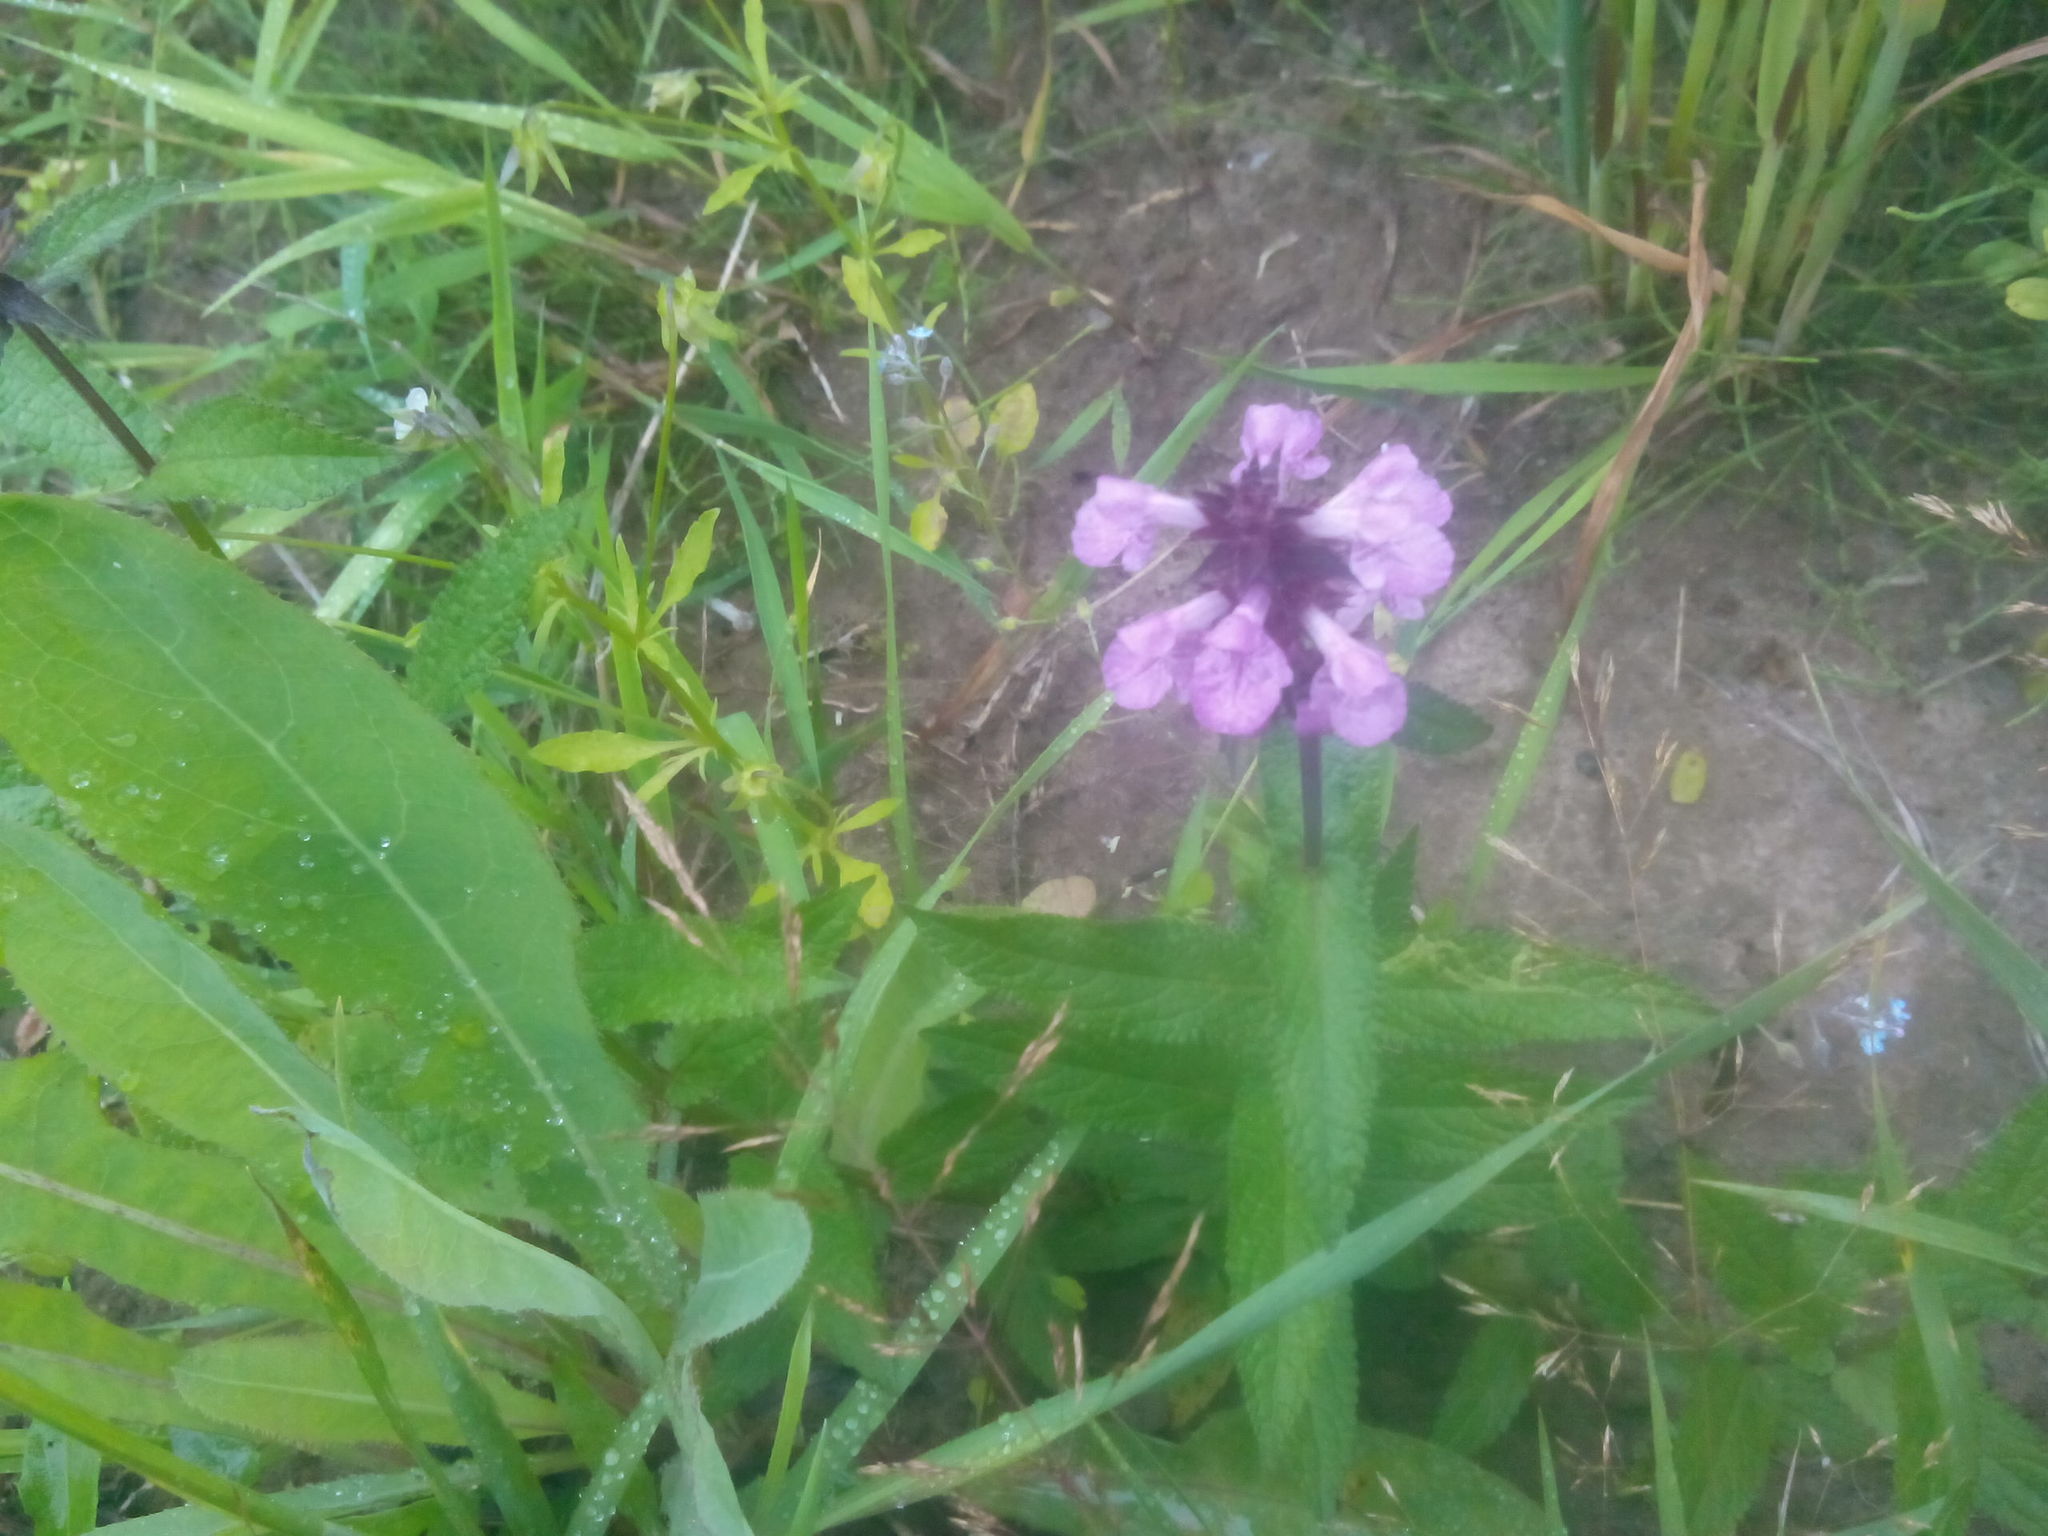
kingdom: Plantae
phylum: Tracheophyta
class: Magnoliopsida
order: Lamiales
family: Lamiaceae
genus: Stachys
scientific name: Stachys palustris
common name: Marsh woundwort
